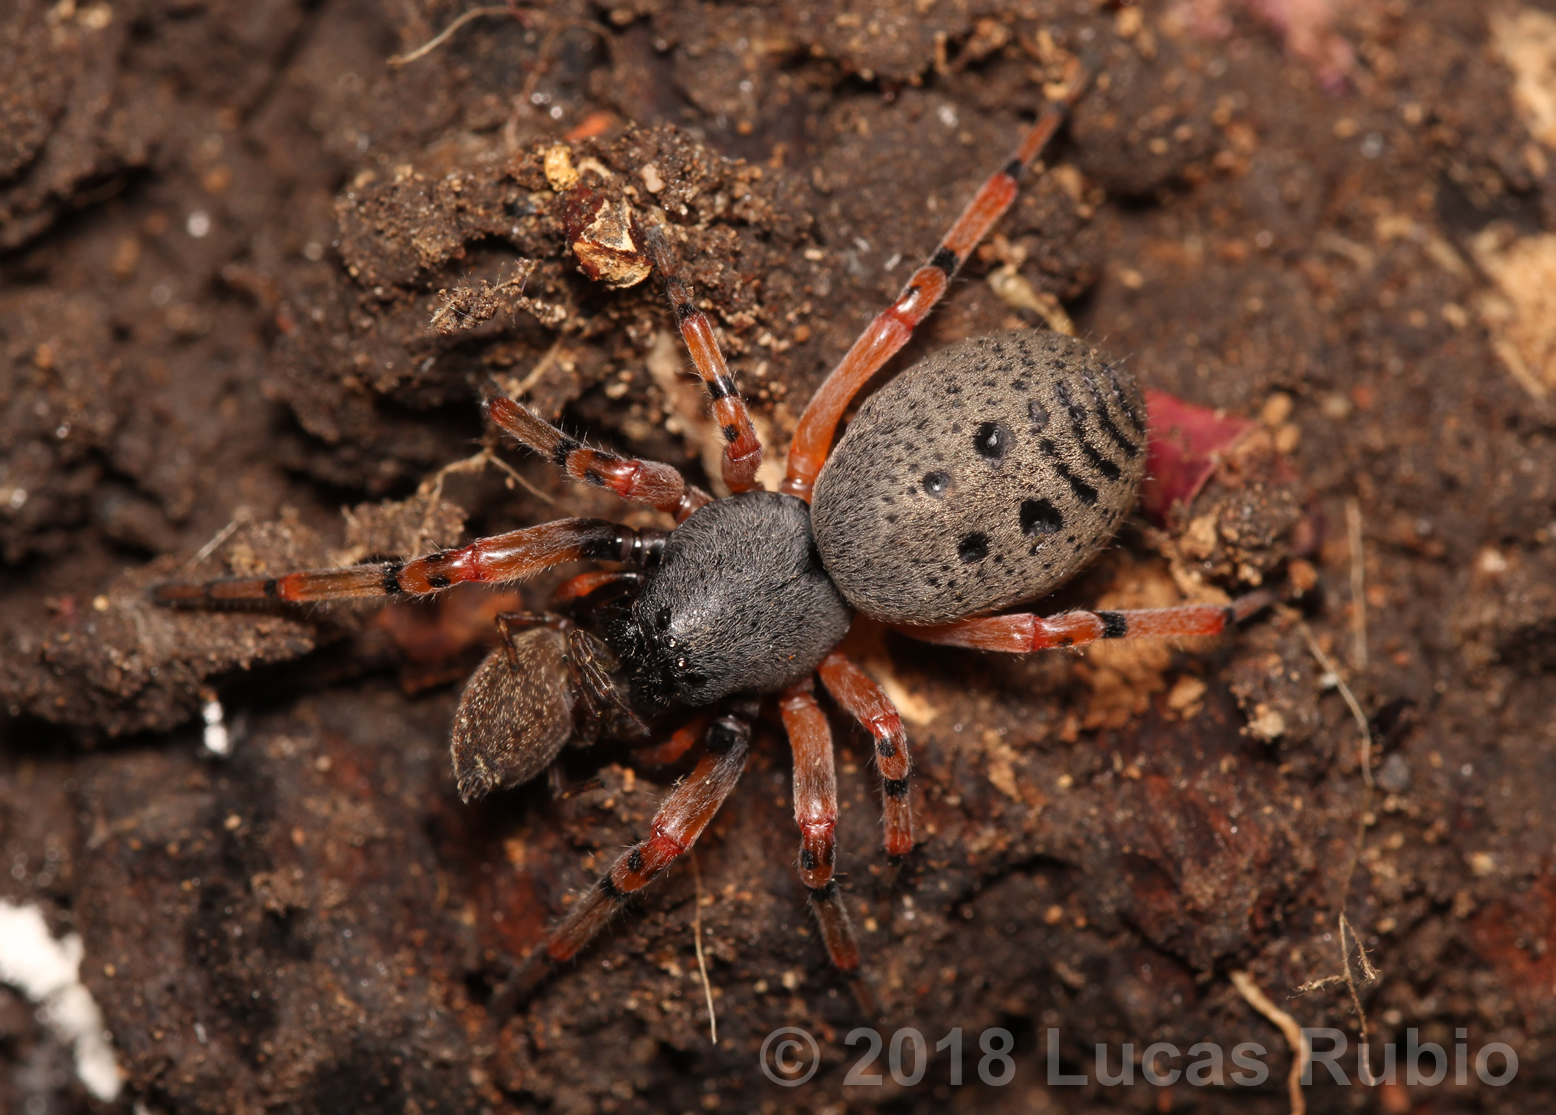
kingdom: Animalia
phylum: Arthropoda
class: Arachnida
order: Araneae
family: Trachelidae
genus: Trachelopachys
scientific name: Trachelopachys
